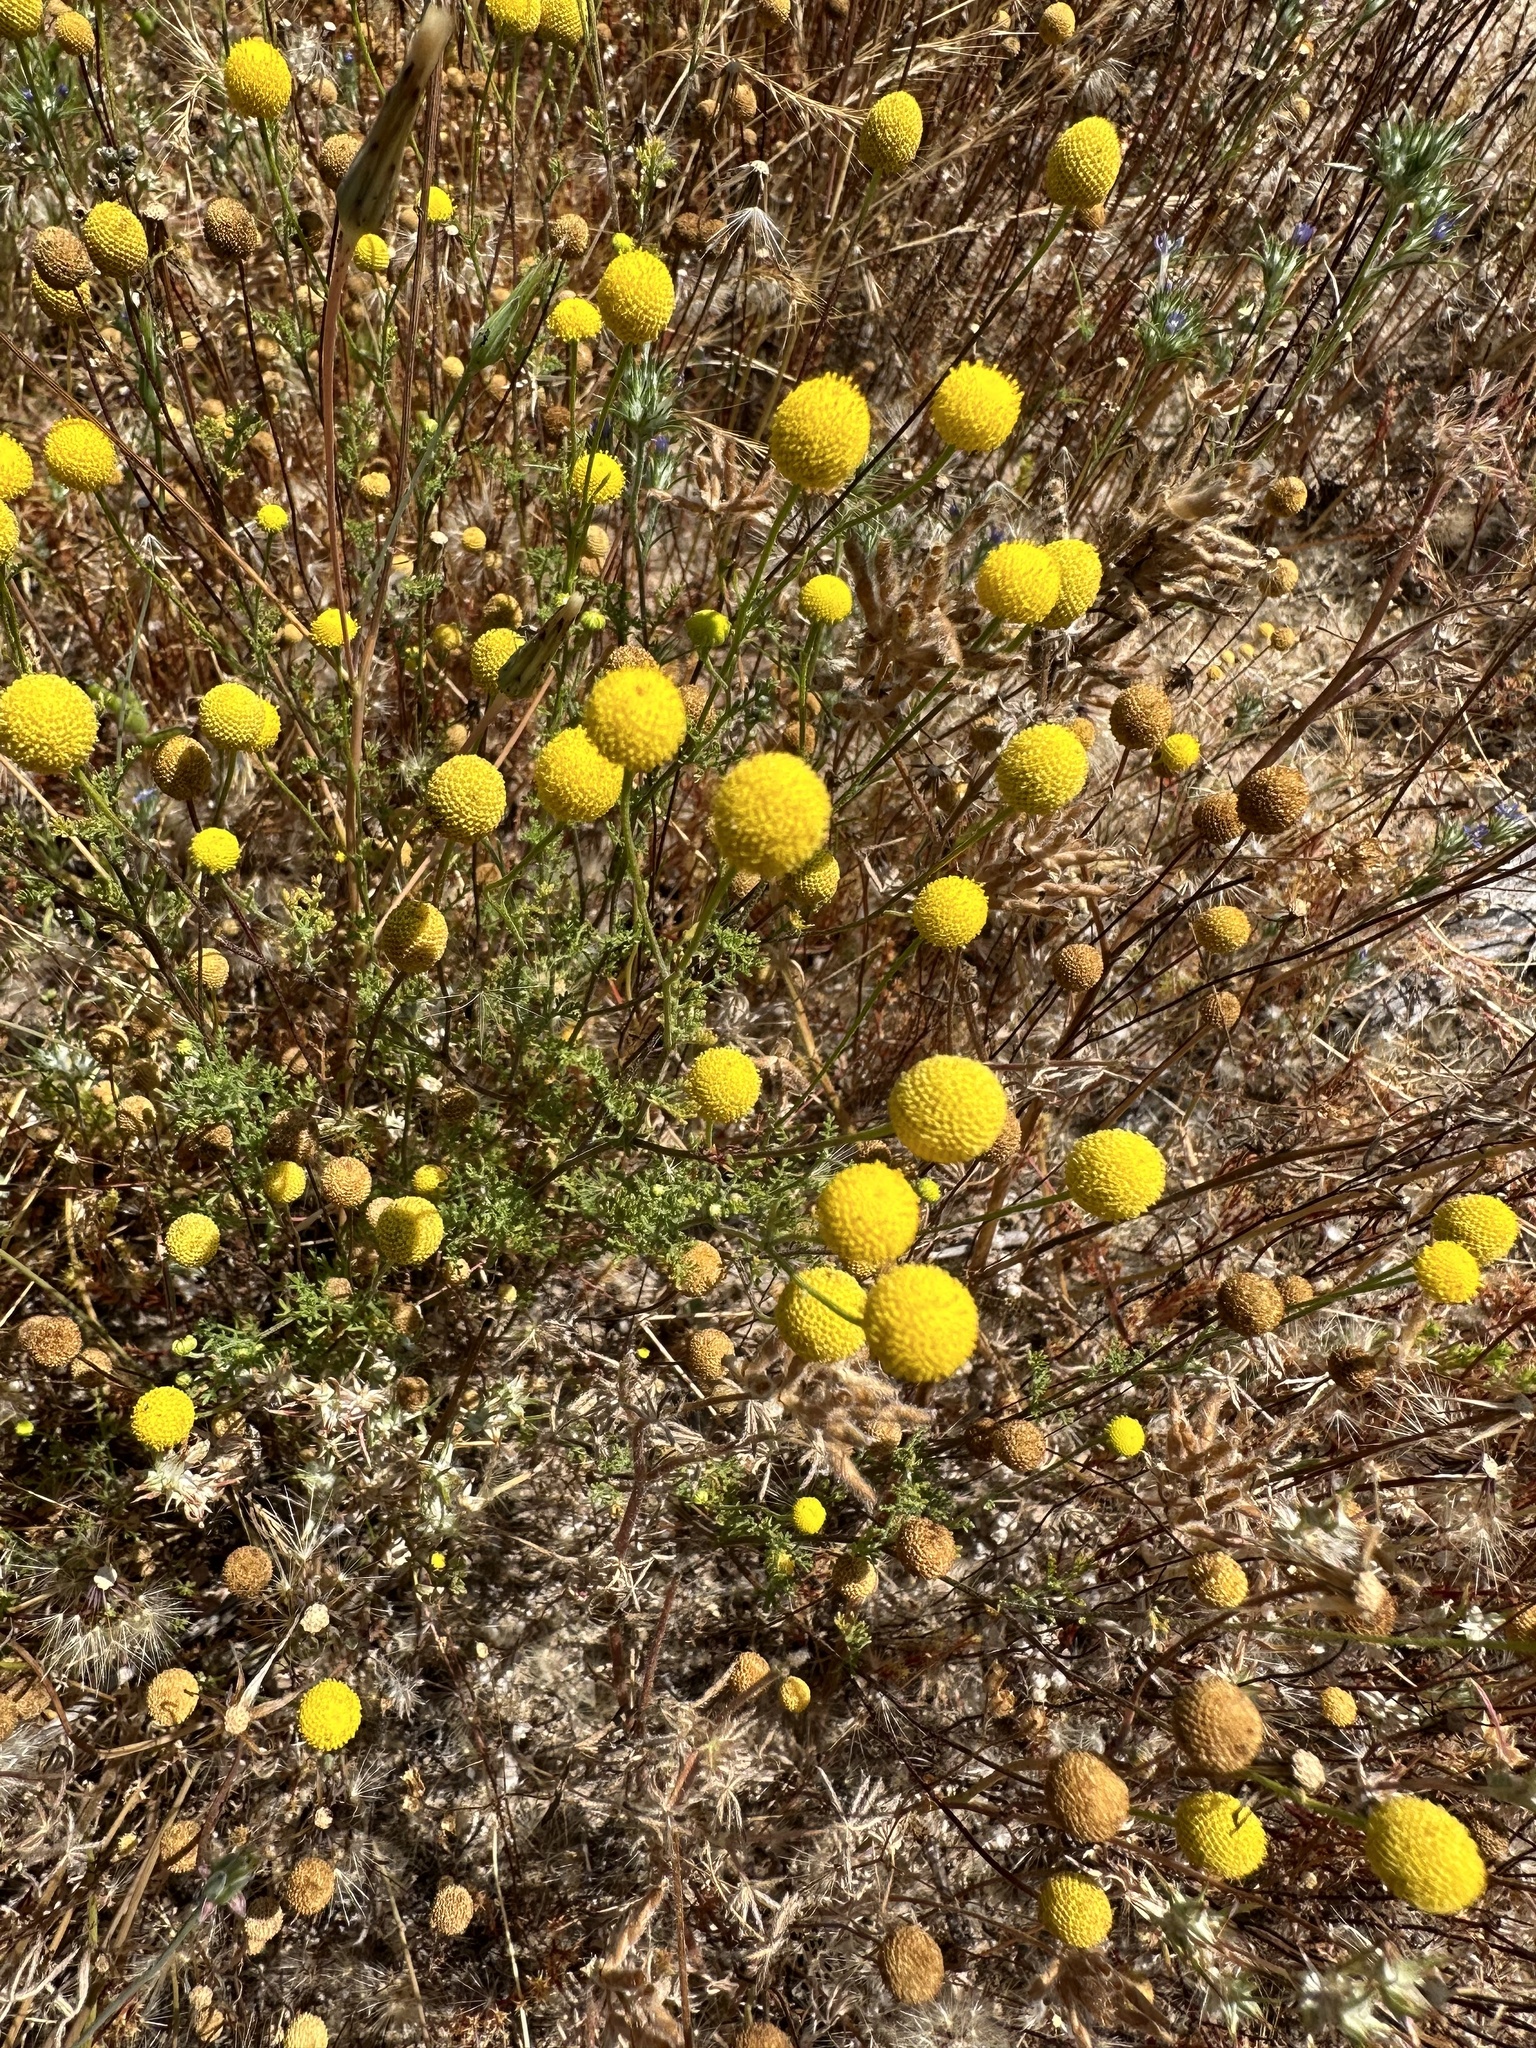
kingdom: Plantae
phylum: Tracheophyta
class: Magnoliopsida
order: Asterales
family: Asteraceae
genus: Oncosiphon
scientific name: Oncosiphon pilulifer
